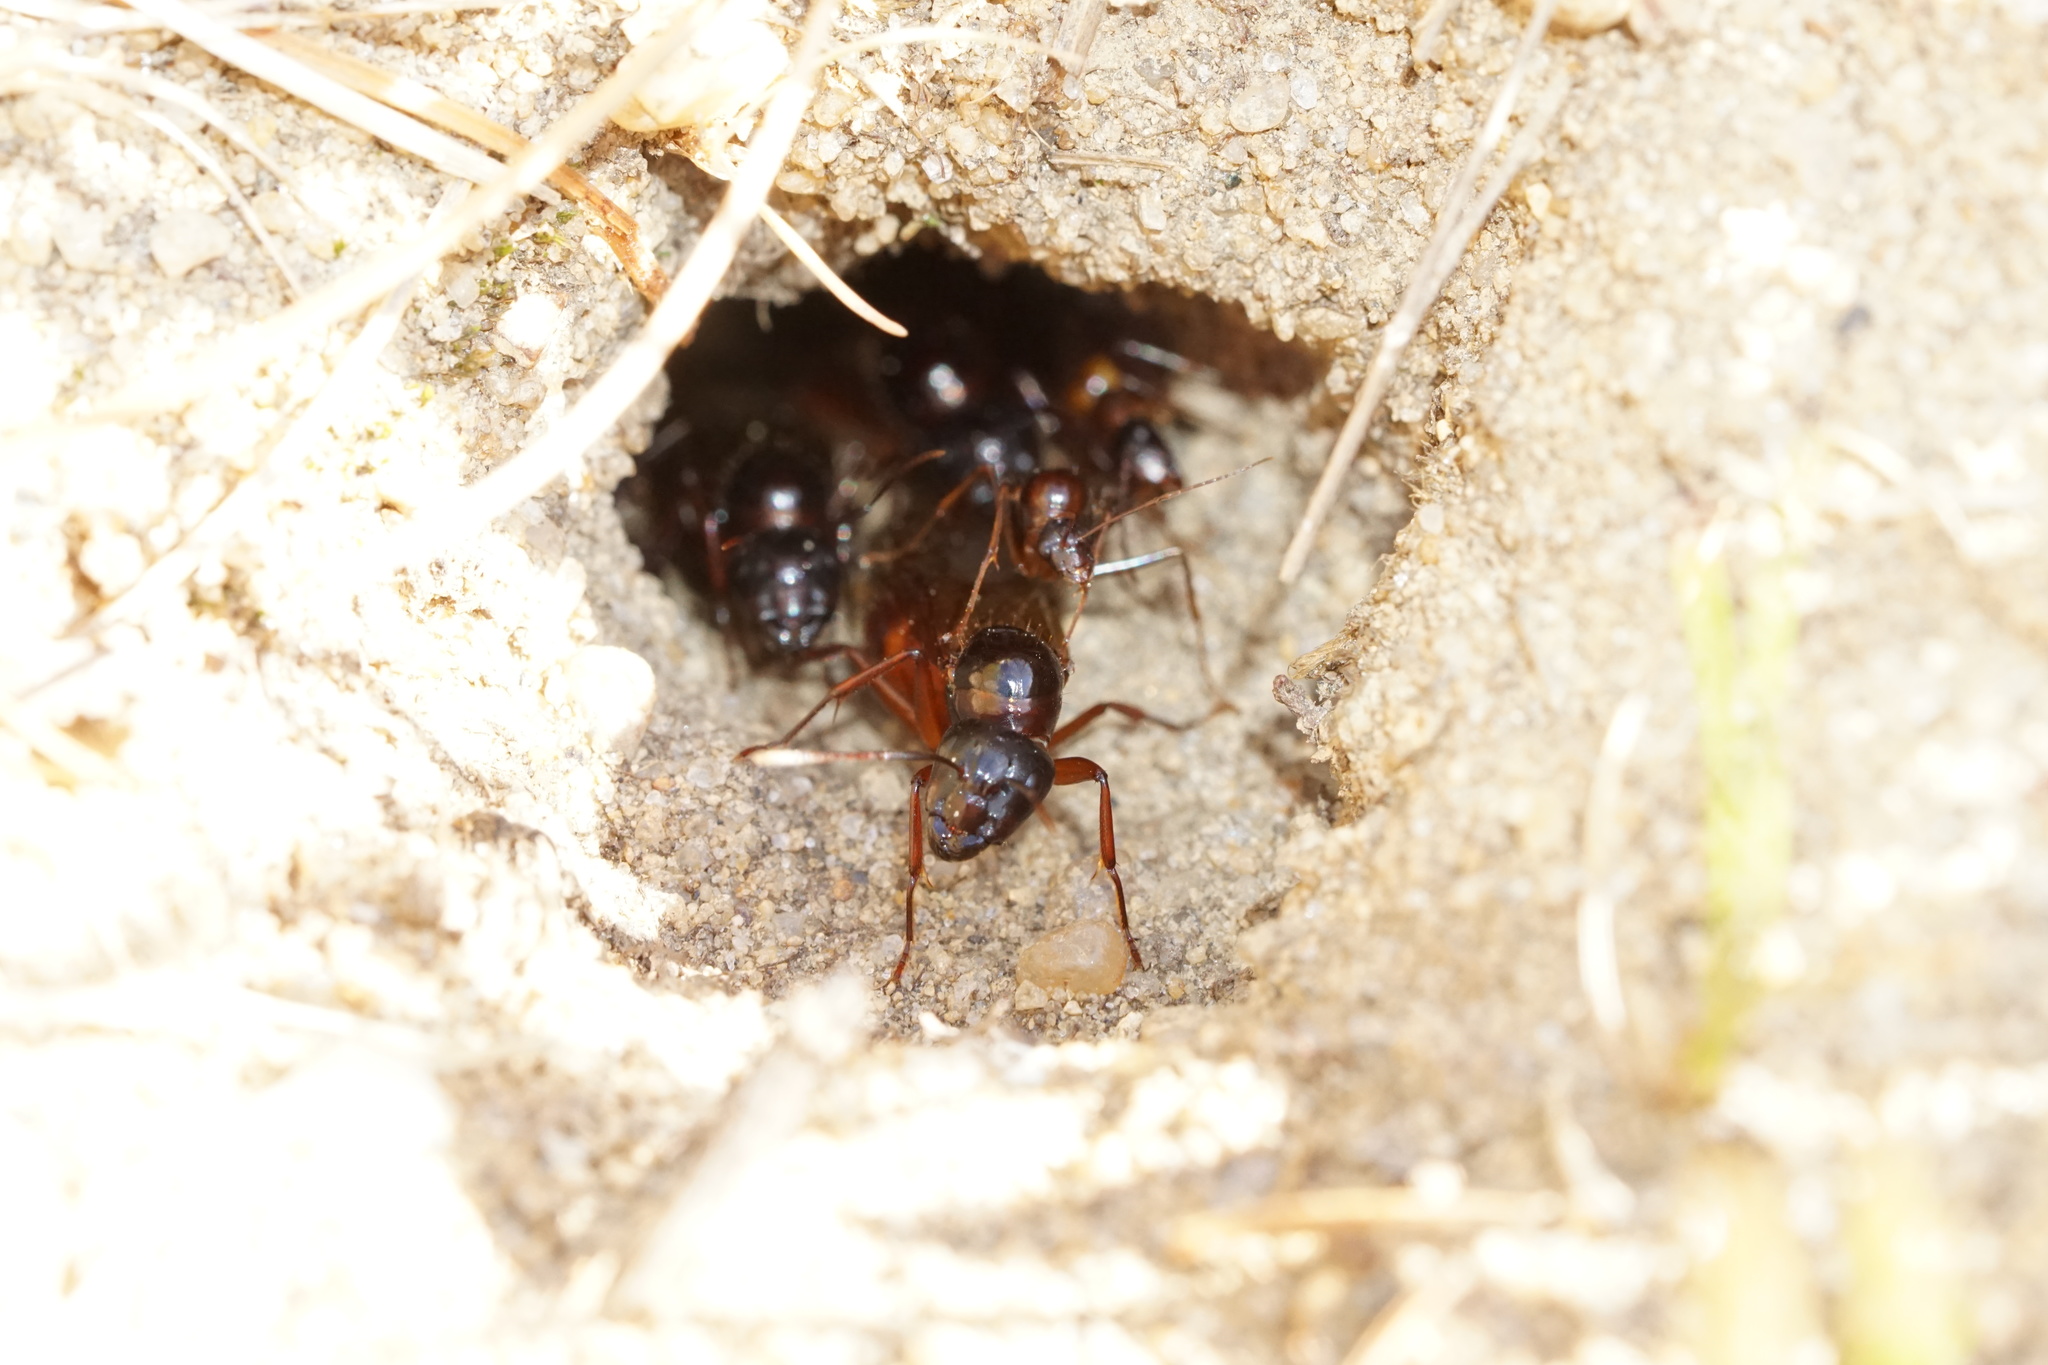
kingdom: Animalia
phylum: Arthropoda
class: Insecta
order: Hymenoptera
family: Formicidae
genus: Camponotus
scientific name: Camponotus americanus
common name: American carpenter ant
